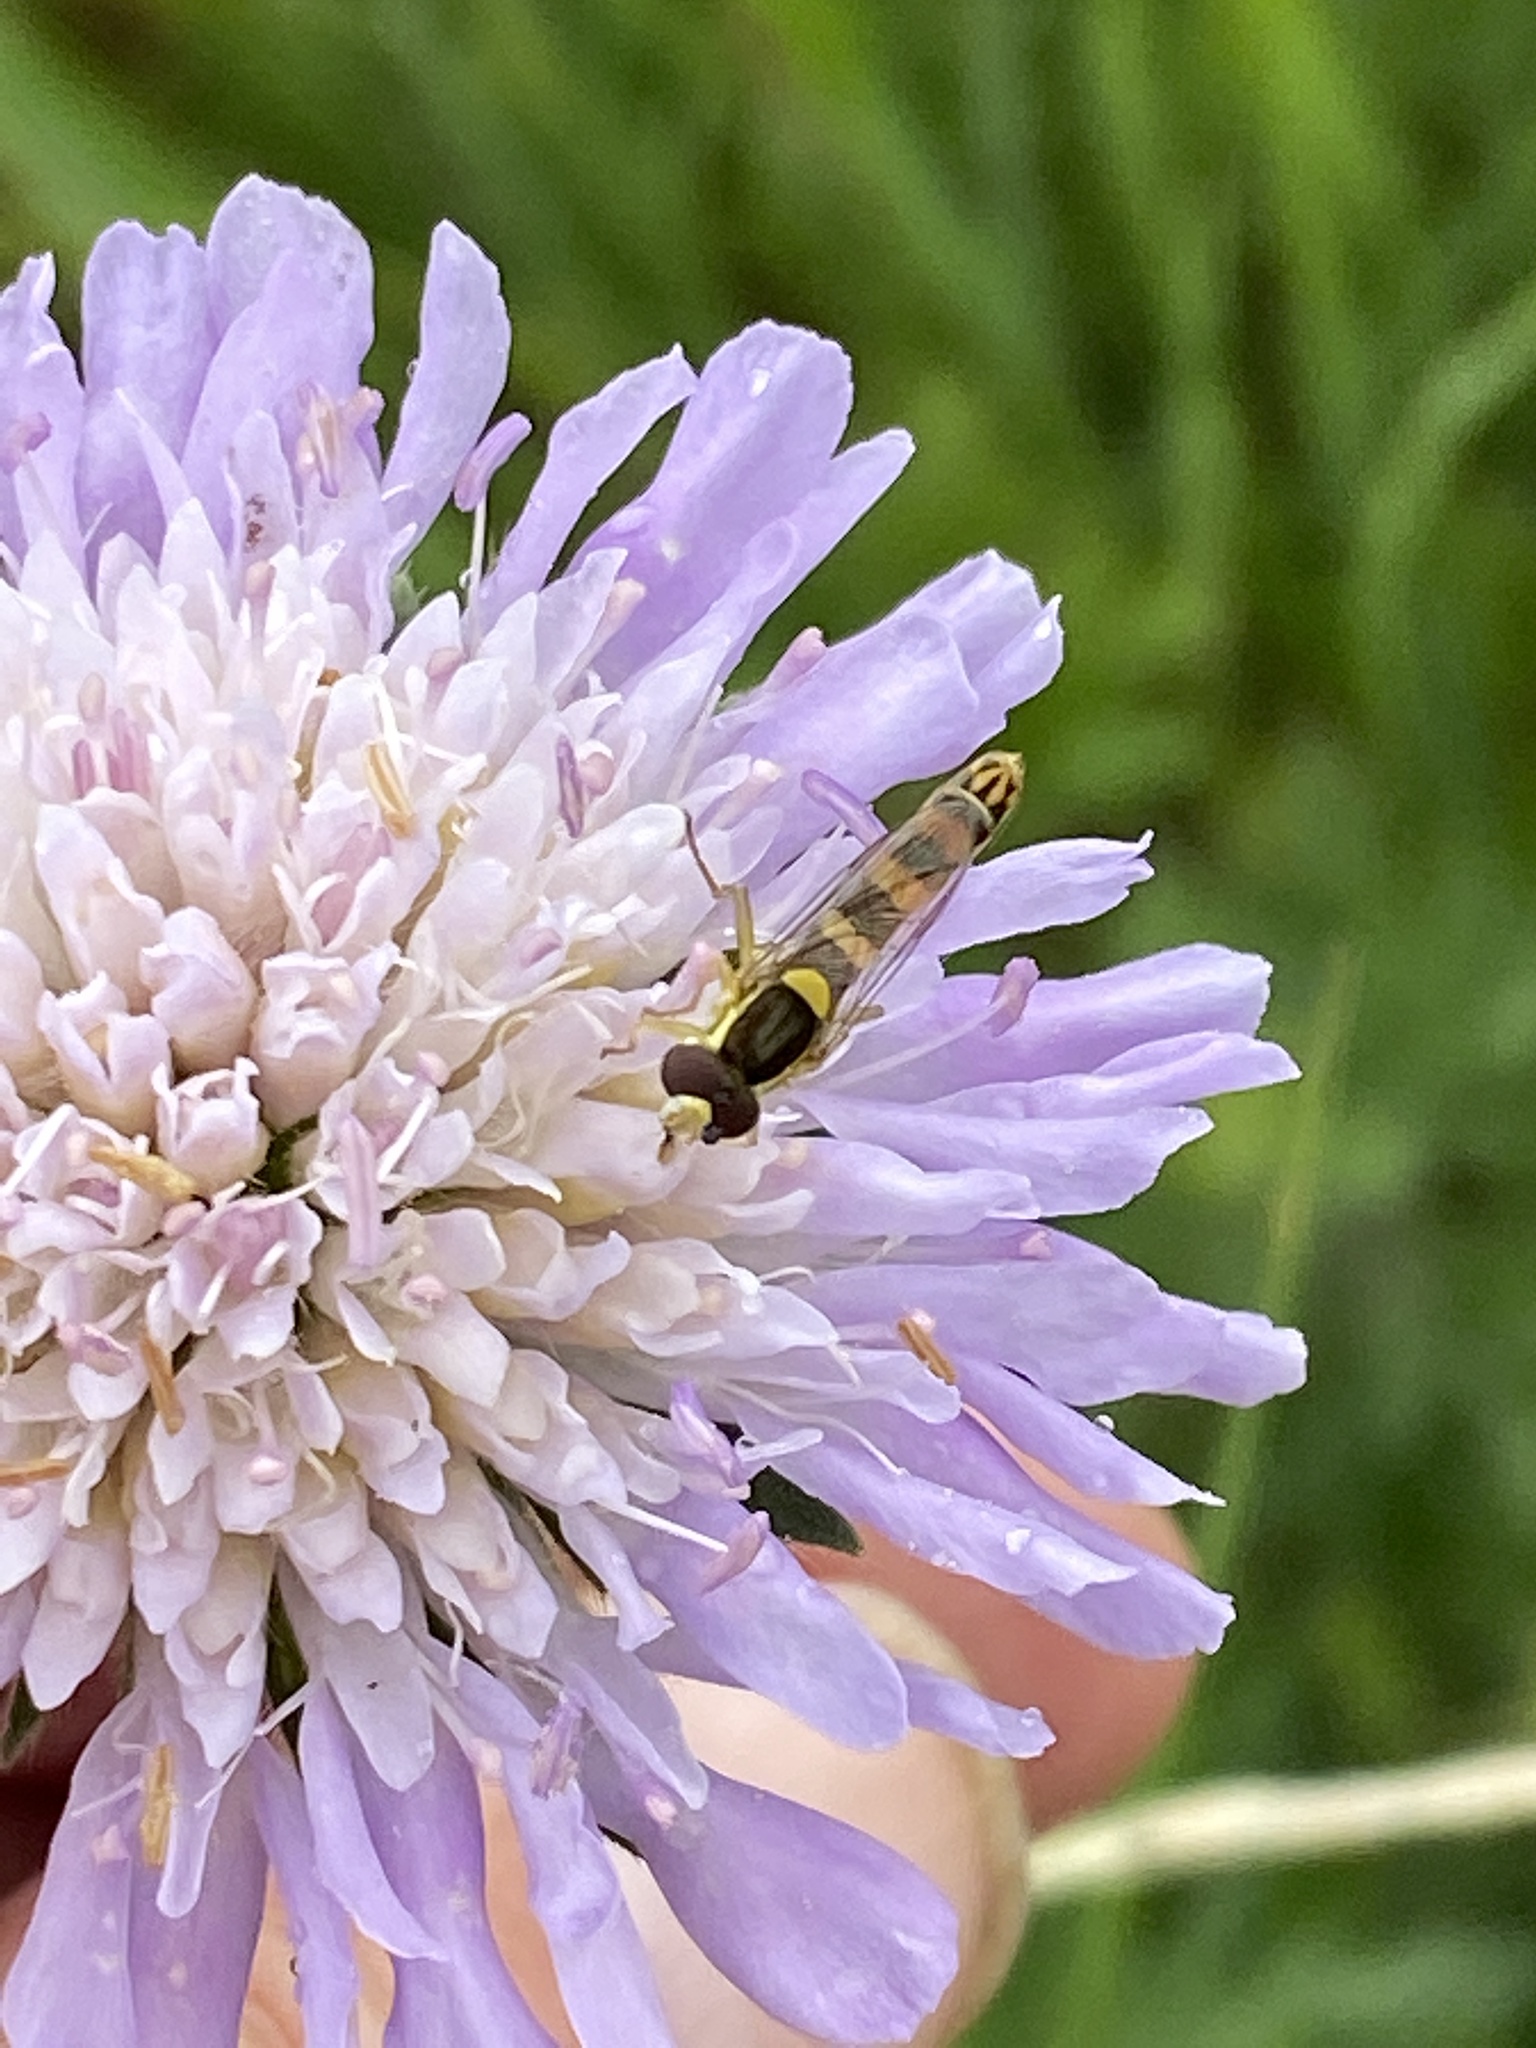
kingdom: Animalia
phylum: Arthropoda
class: Insecta
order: Diptera
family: Syrphidae
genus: Sphaerophoria
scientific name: Sphaerophoria scripta
